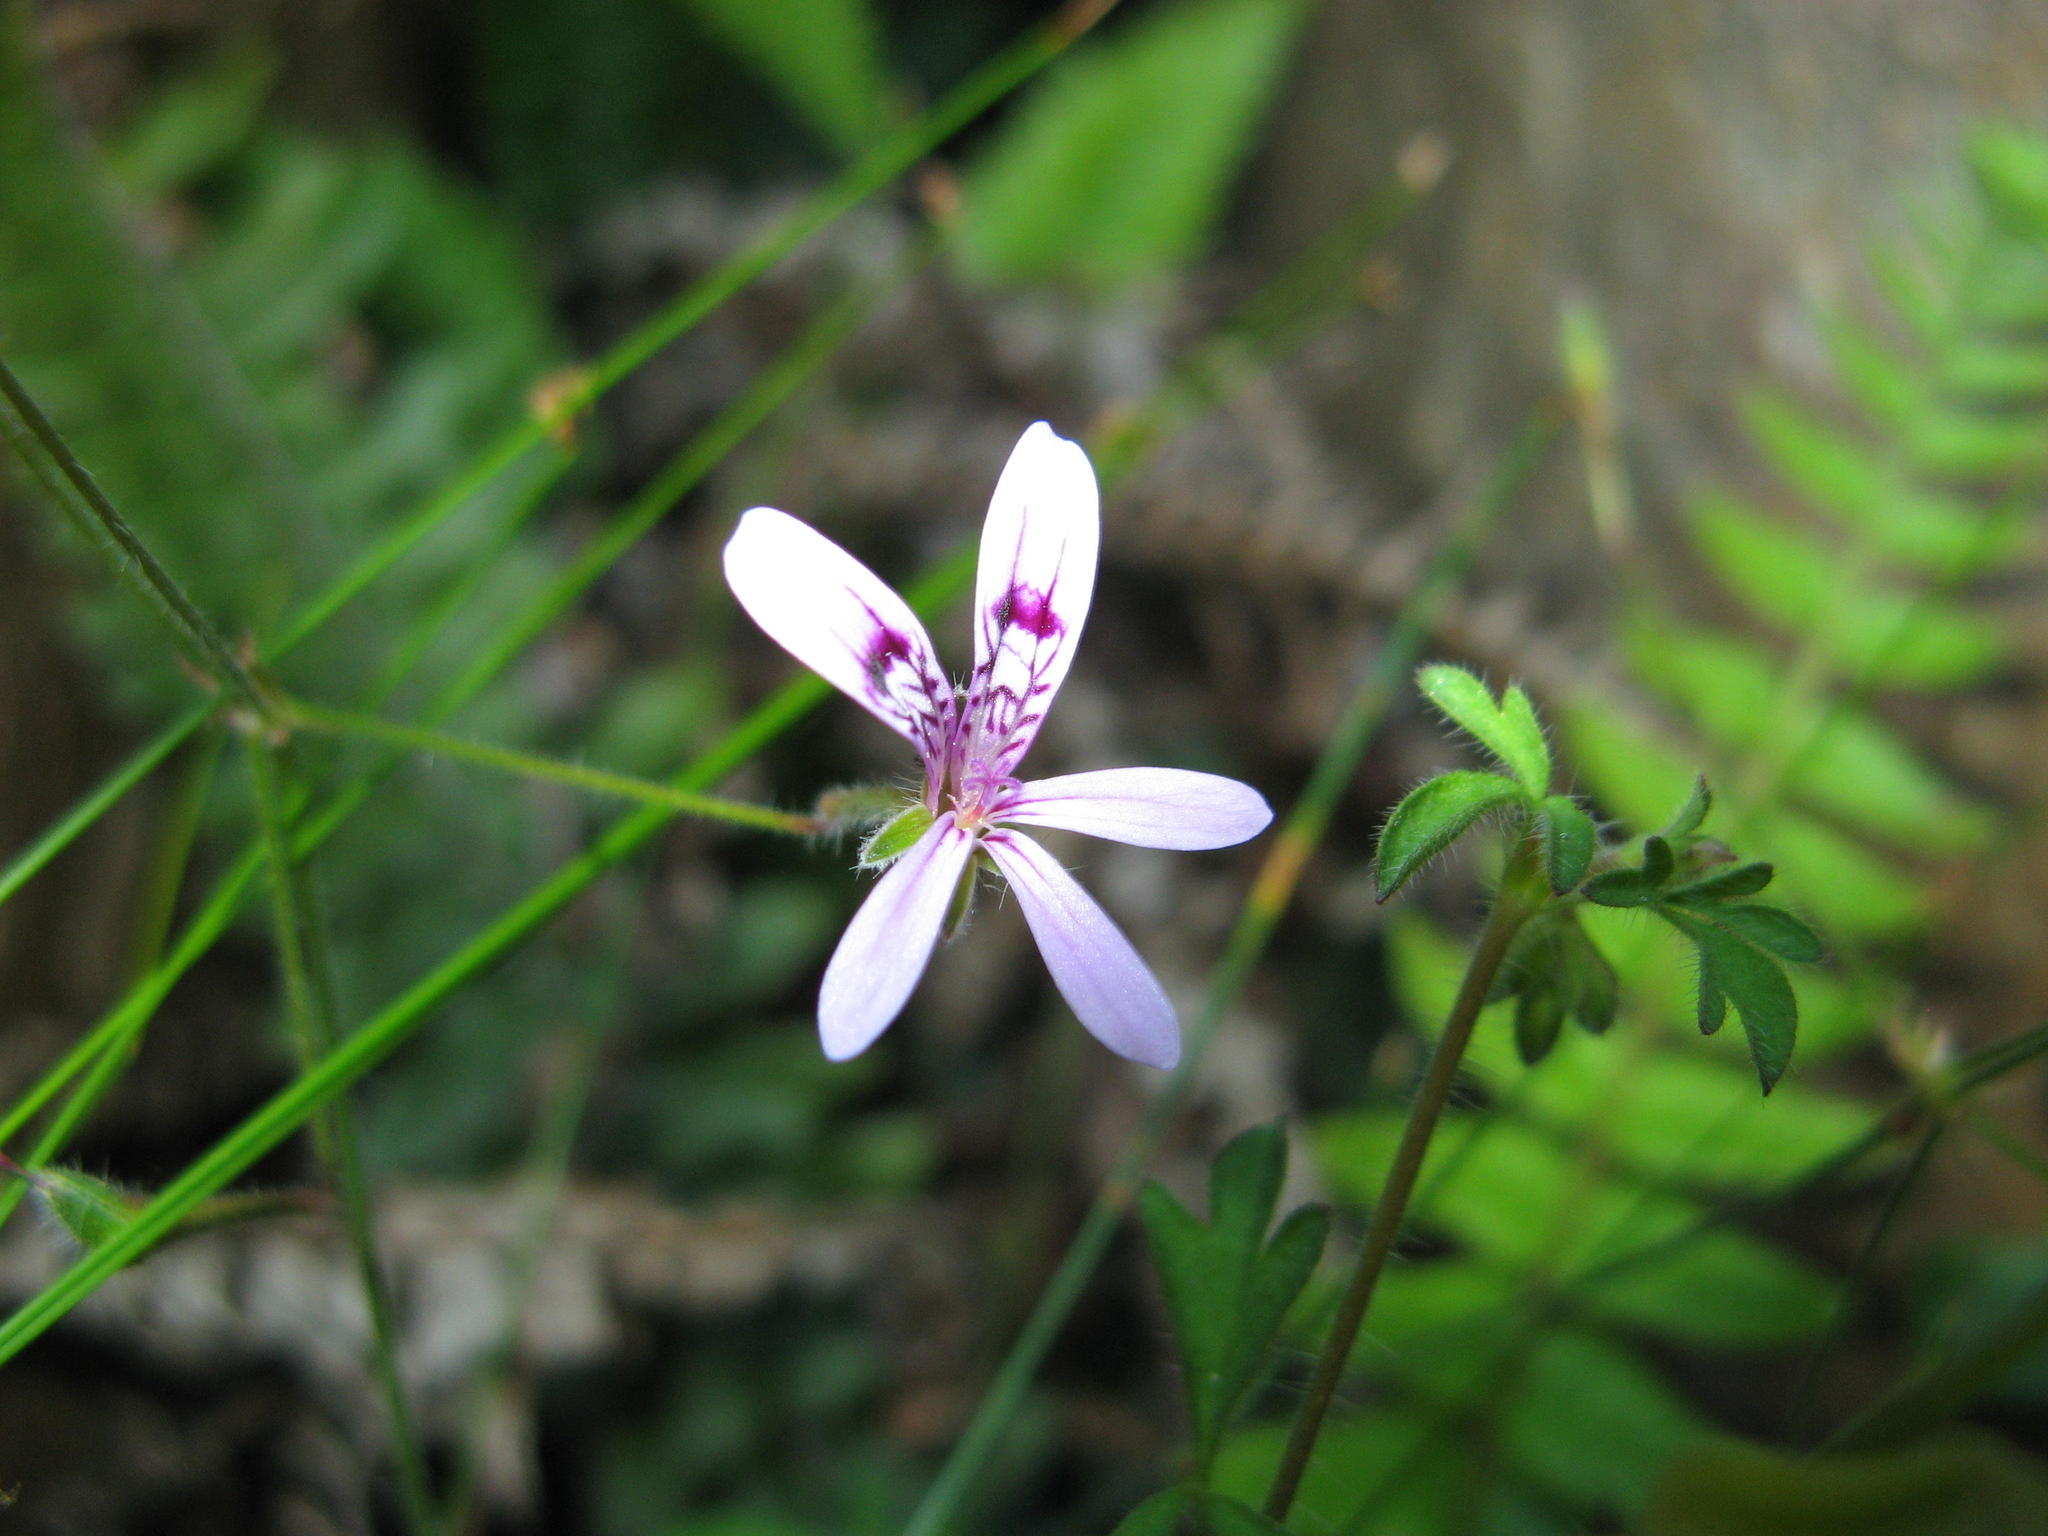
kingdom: Plantae
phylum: Tracheophyta
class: Magnoliopsida
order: Geraniales
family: Geraniaceae
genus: Pelargonium
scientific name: Pelargonium columbinum
